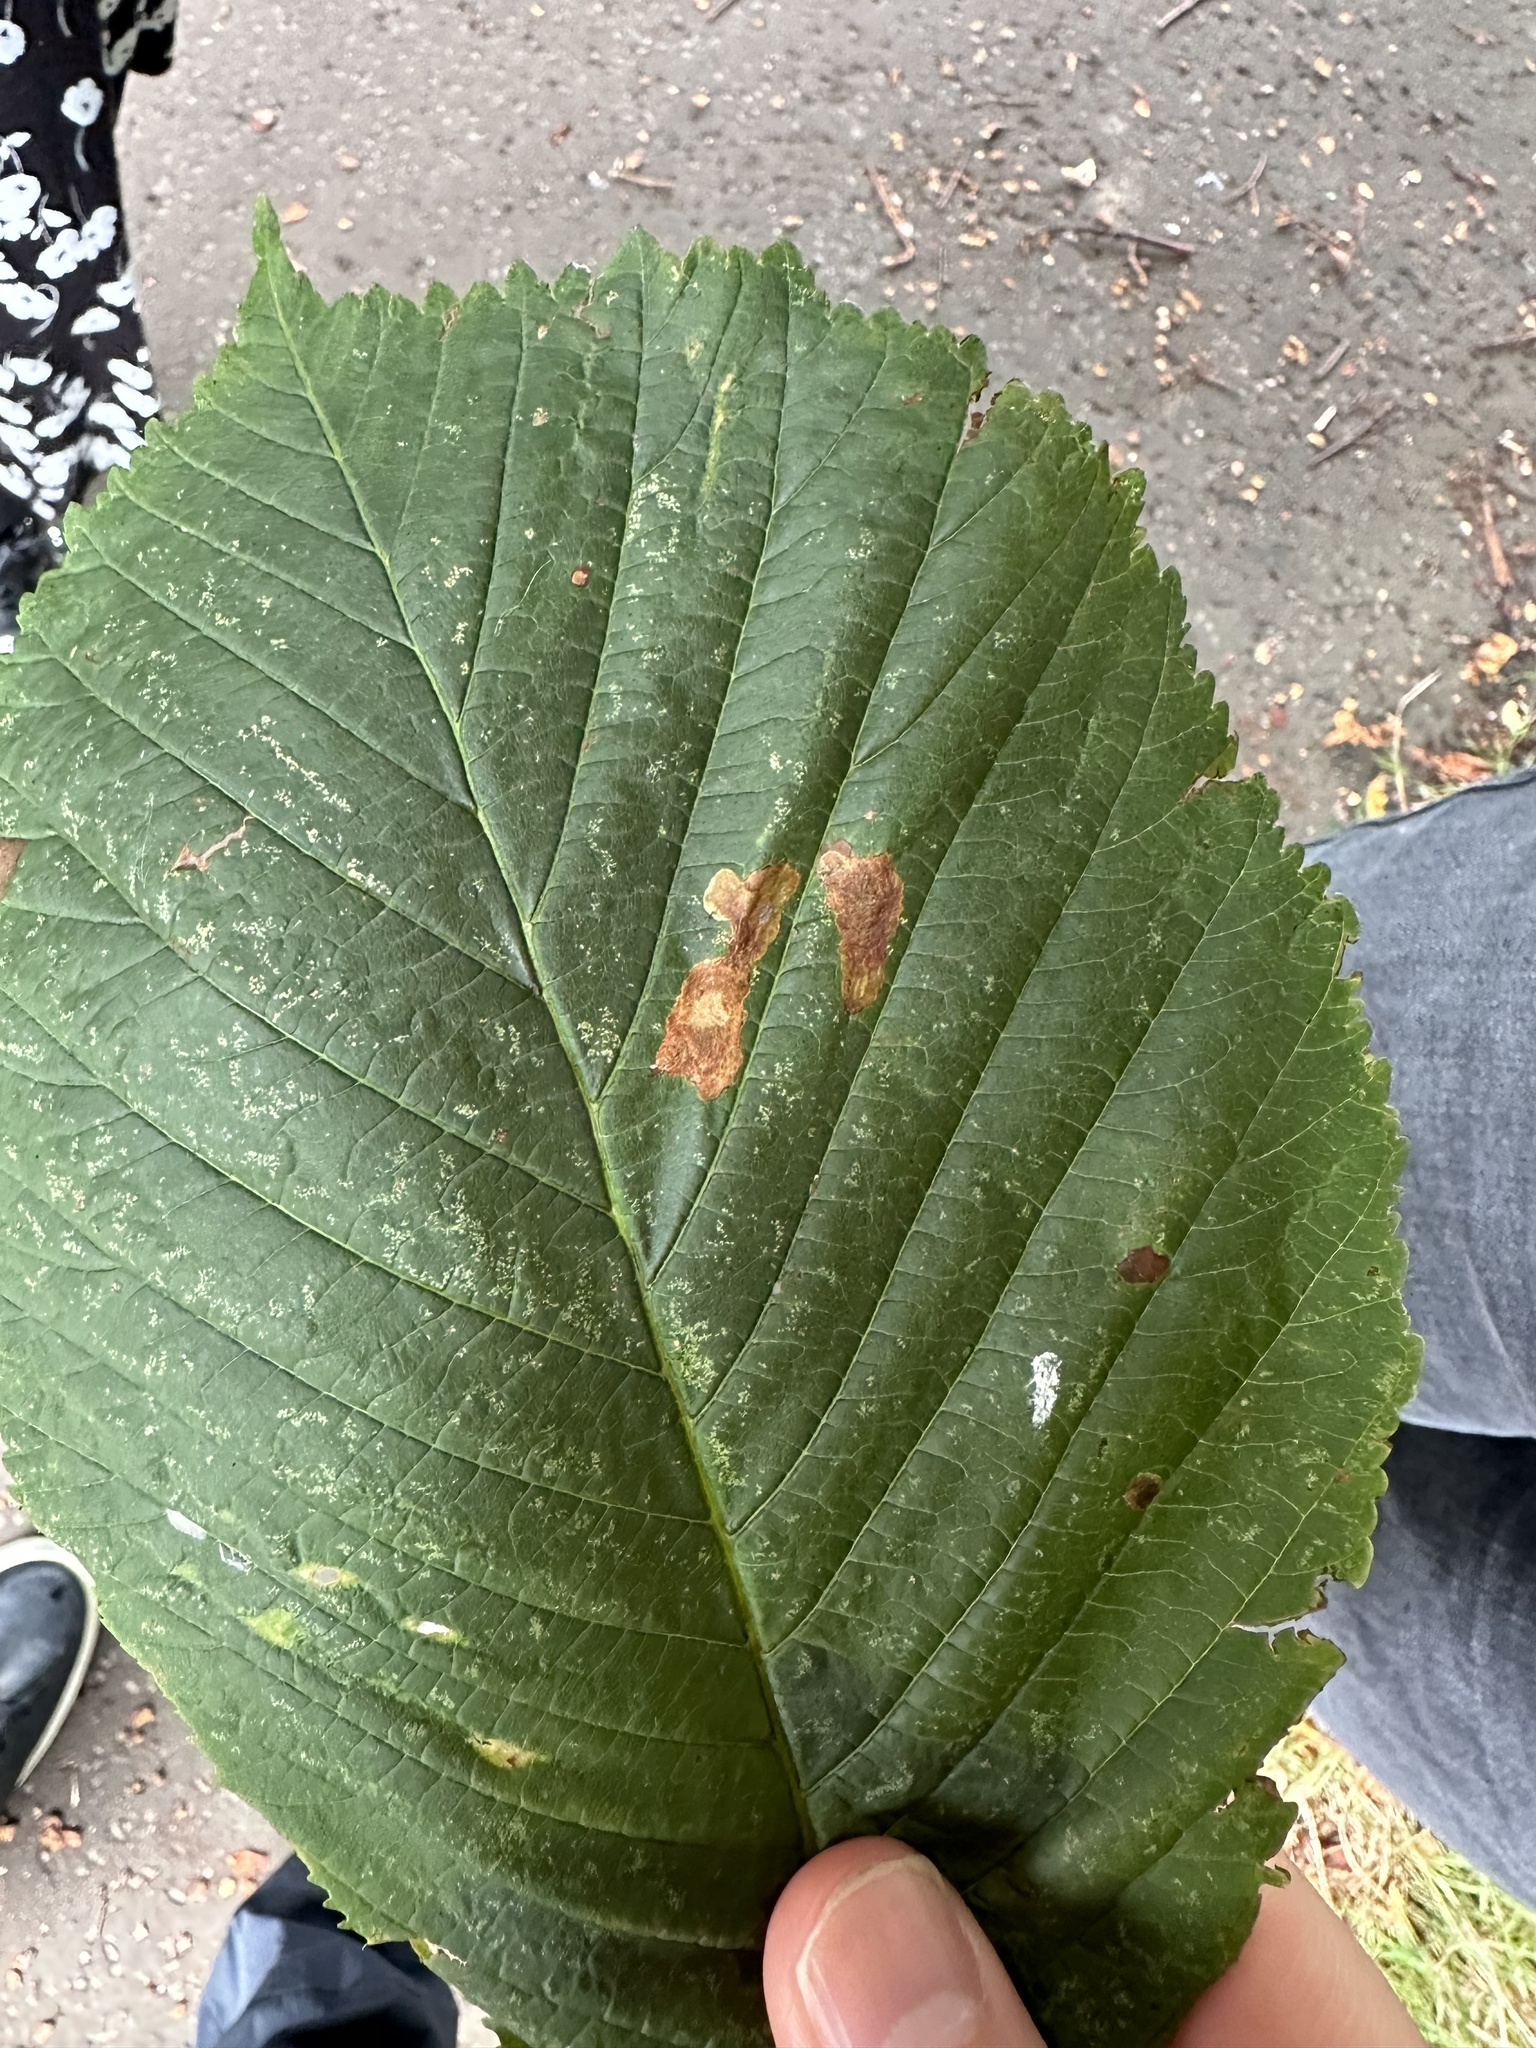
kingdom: Animalia
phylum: Arthropoda
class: Insecta
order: Lepidoptera
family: Gracillariidae
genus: Cameraria
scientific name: Cameraria ohridella
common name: Horse-chestnut leaf-miner
